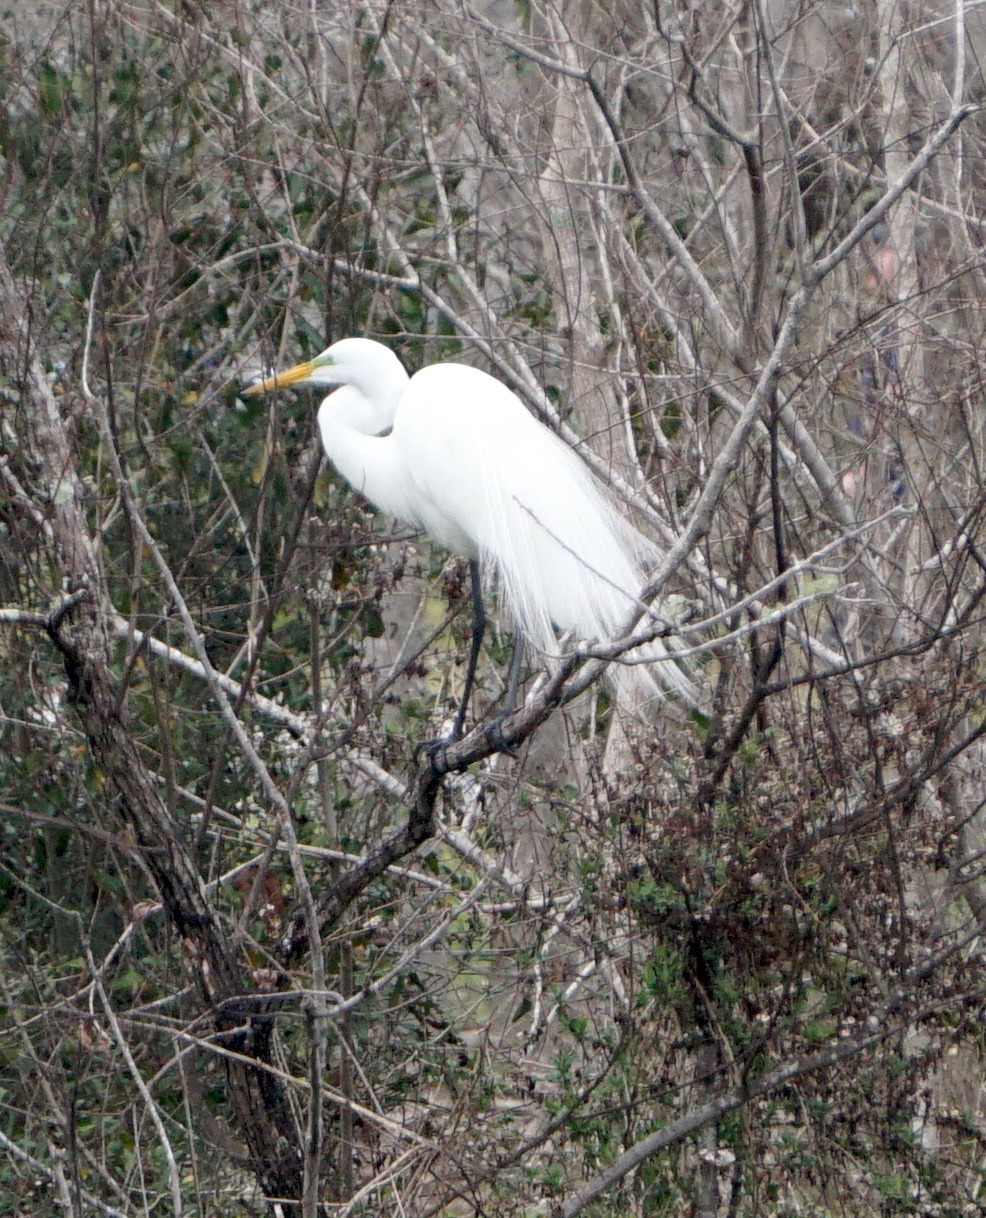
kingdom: Animalia
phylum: Chordata
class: Aves
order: Pelecaniformes
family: Ardeidae
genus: Ardea
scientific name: Ardea alba
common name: Great egret
